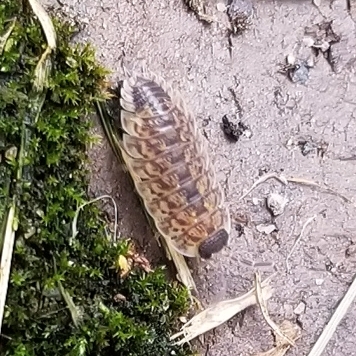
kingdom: Animalia
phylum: Arthropoda
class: Malacostraca
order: Isopoda
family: Porcellionidae
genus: Porcellio
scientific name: Porcellio spinicornis
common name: Painted woodlouse
